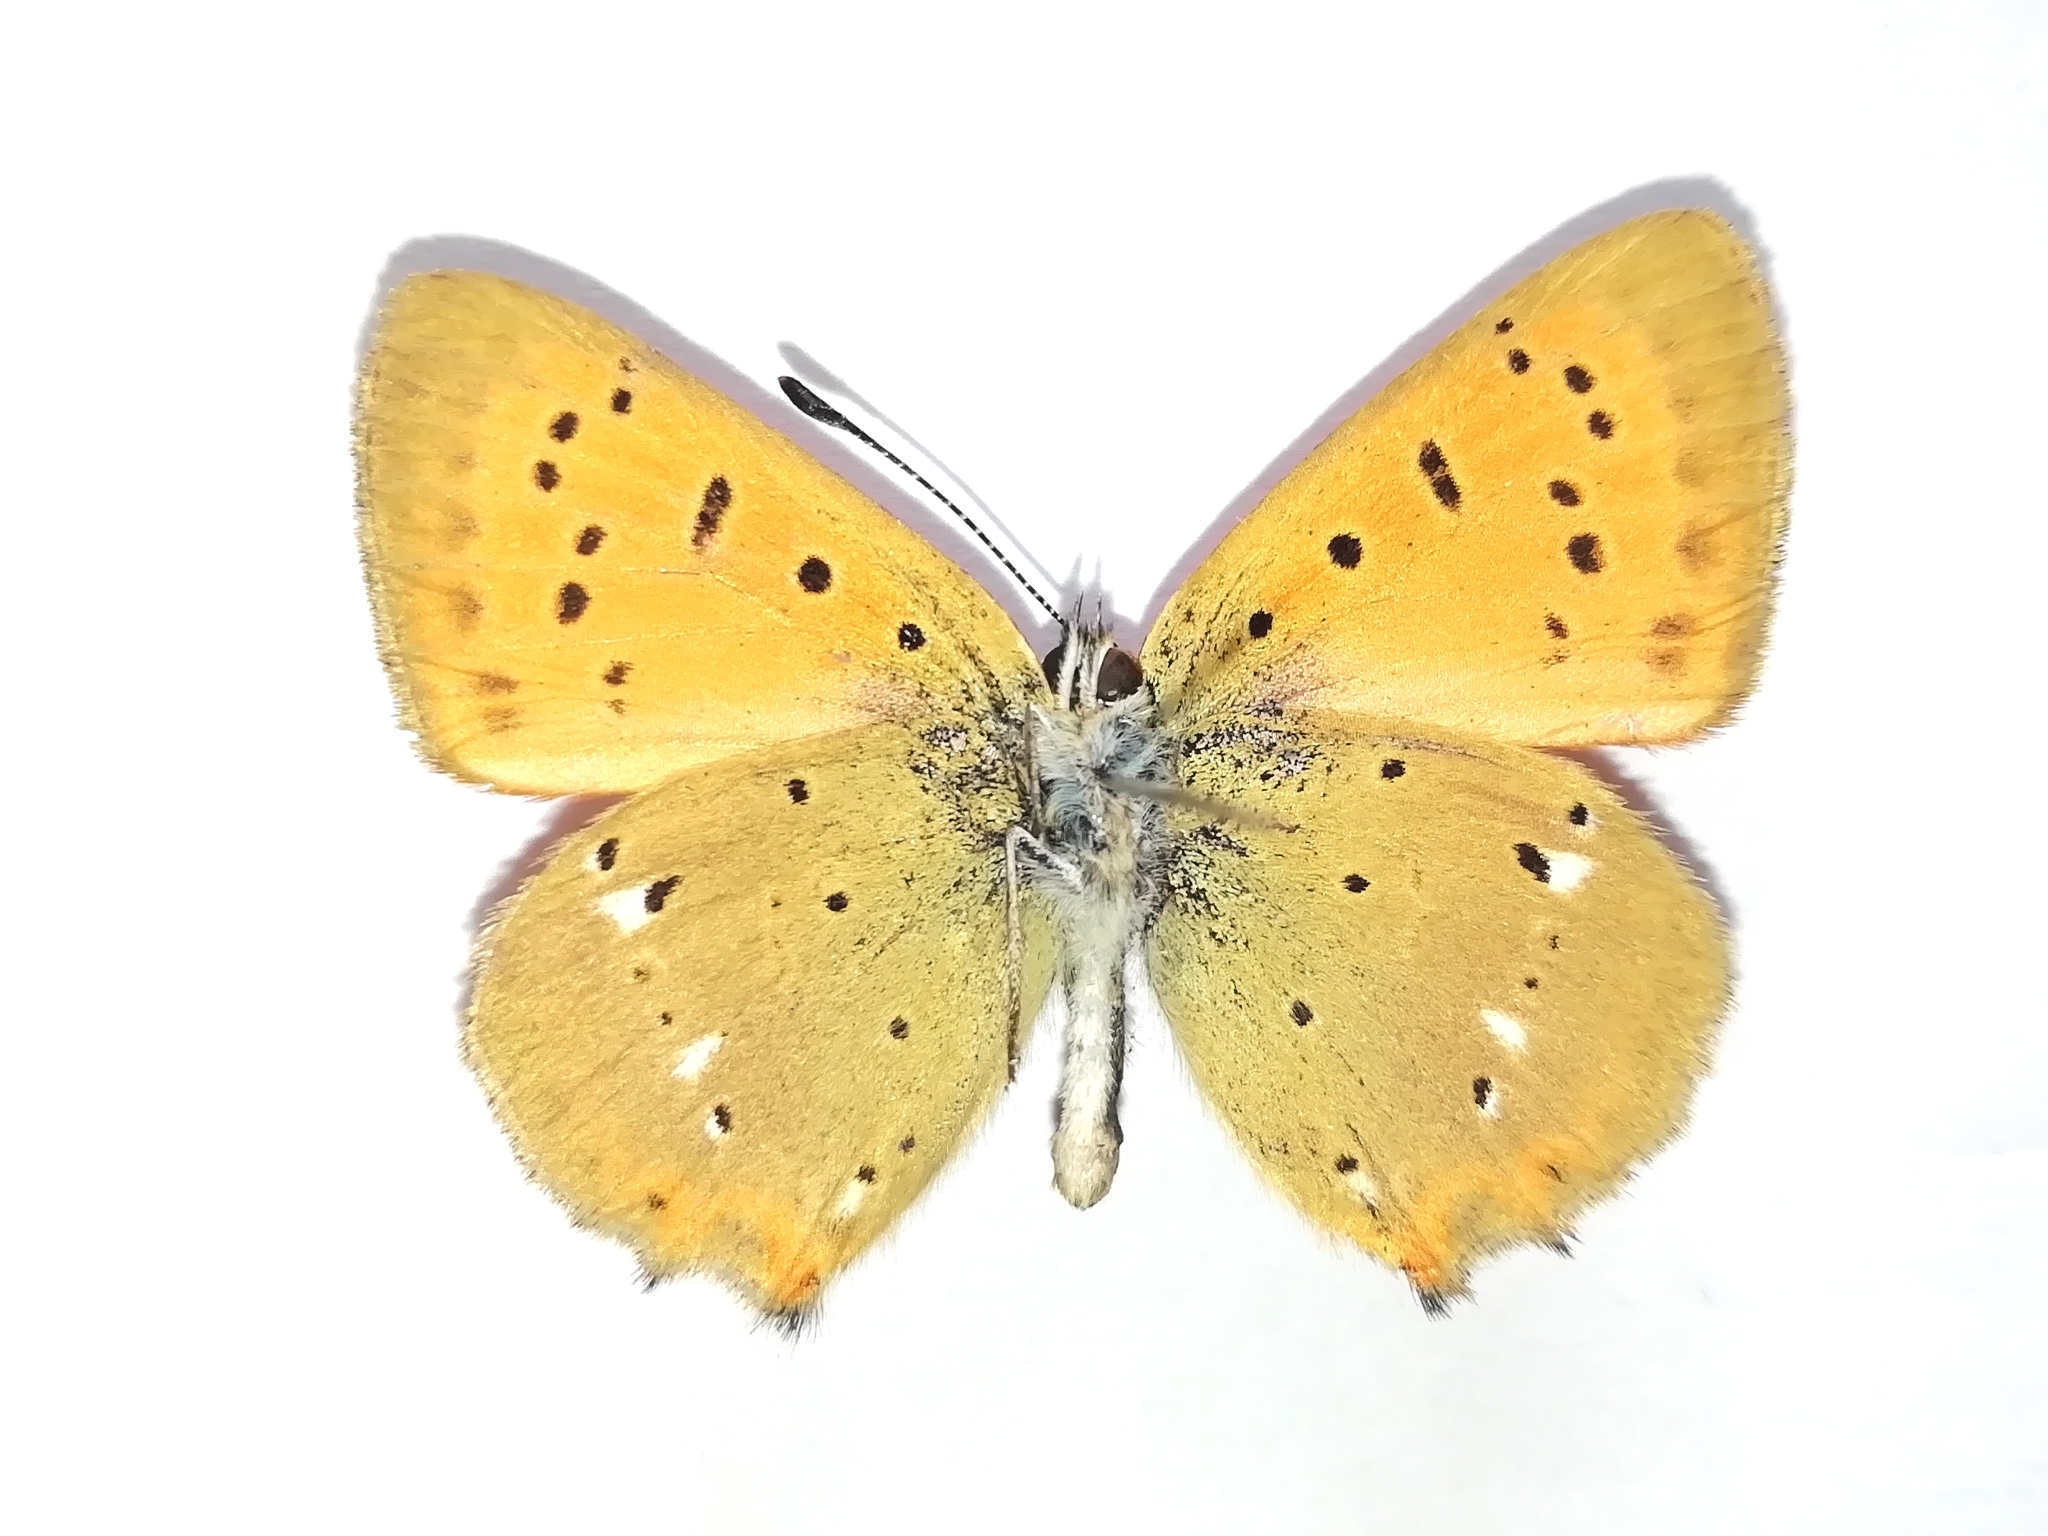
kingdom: Animalia
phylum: Arthropoda
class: Insecta
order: Lepidoptera
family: Lycaenidae
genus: Lycaena
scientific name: Lycaena virgaureae
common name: Scarce copper
